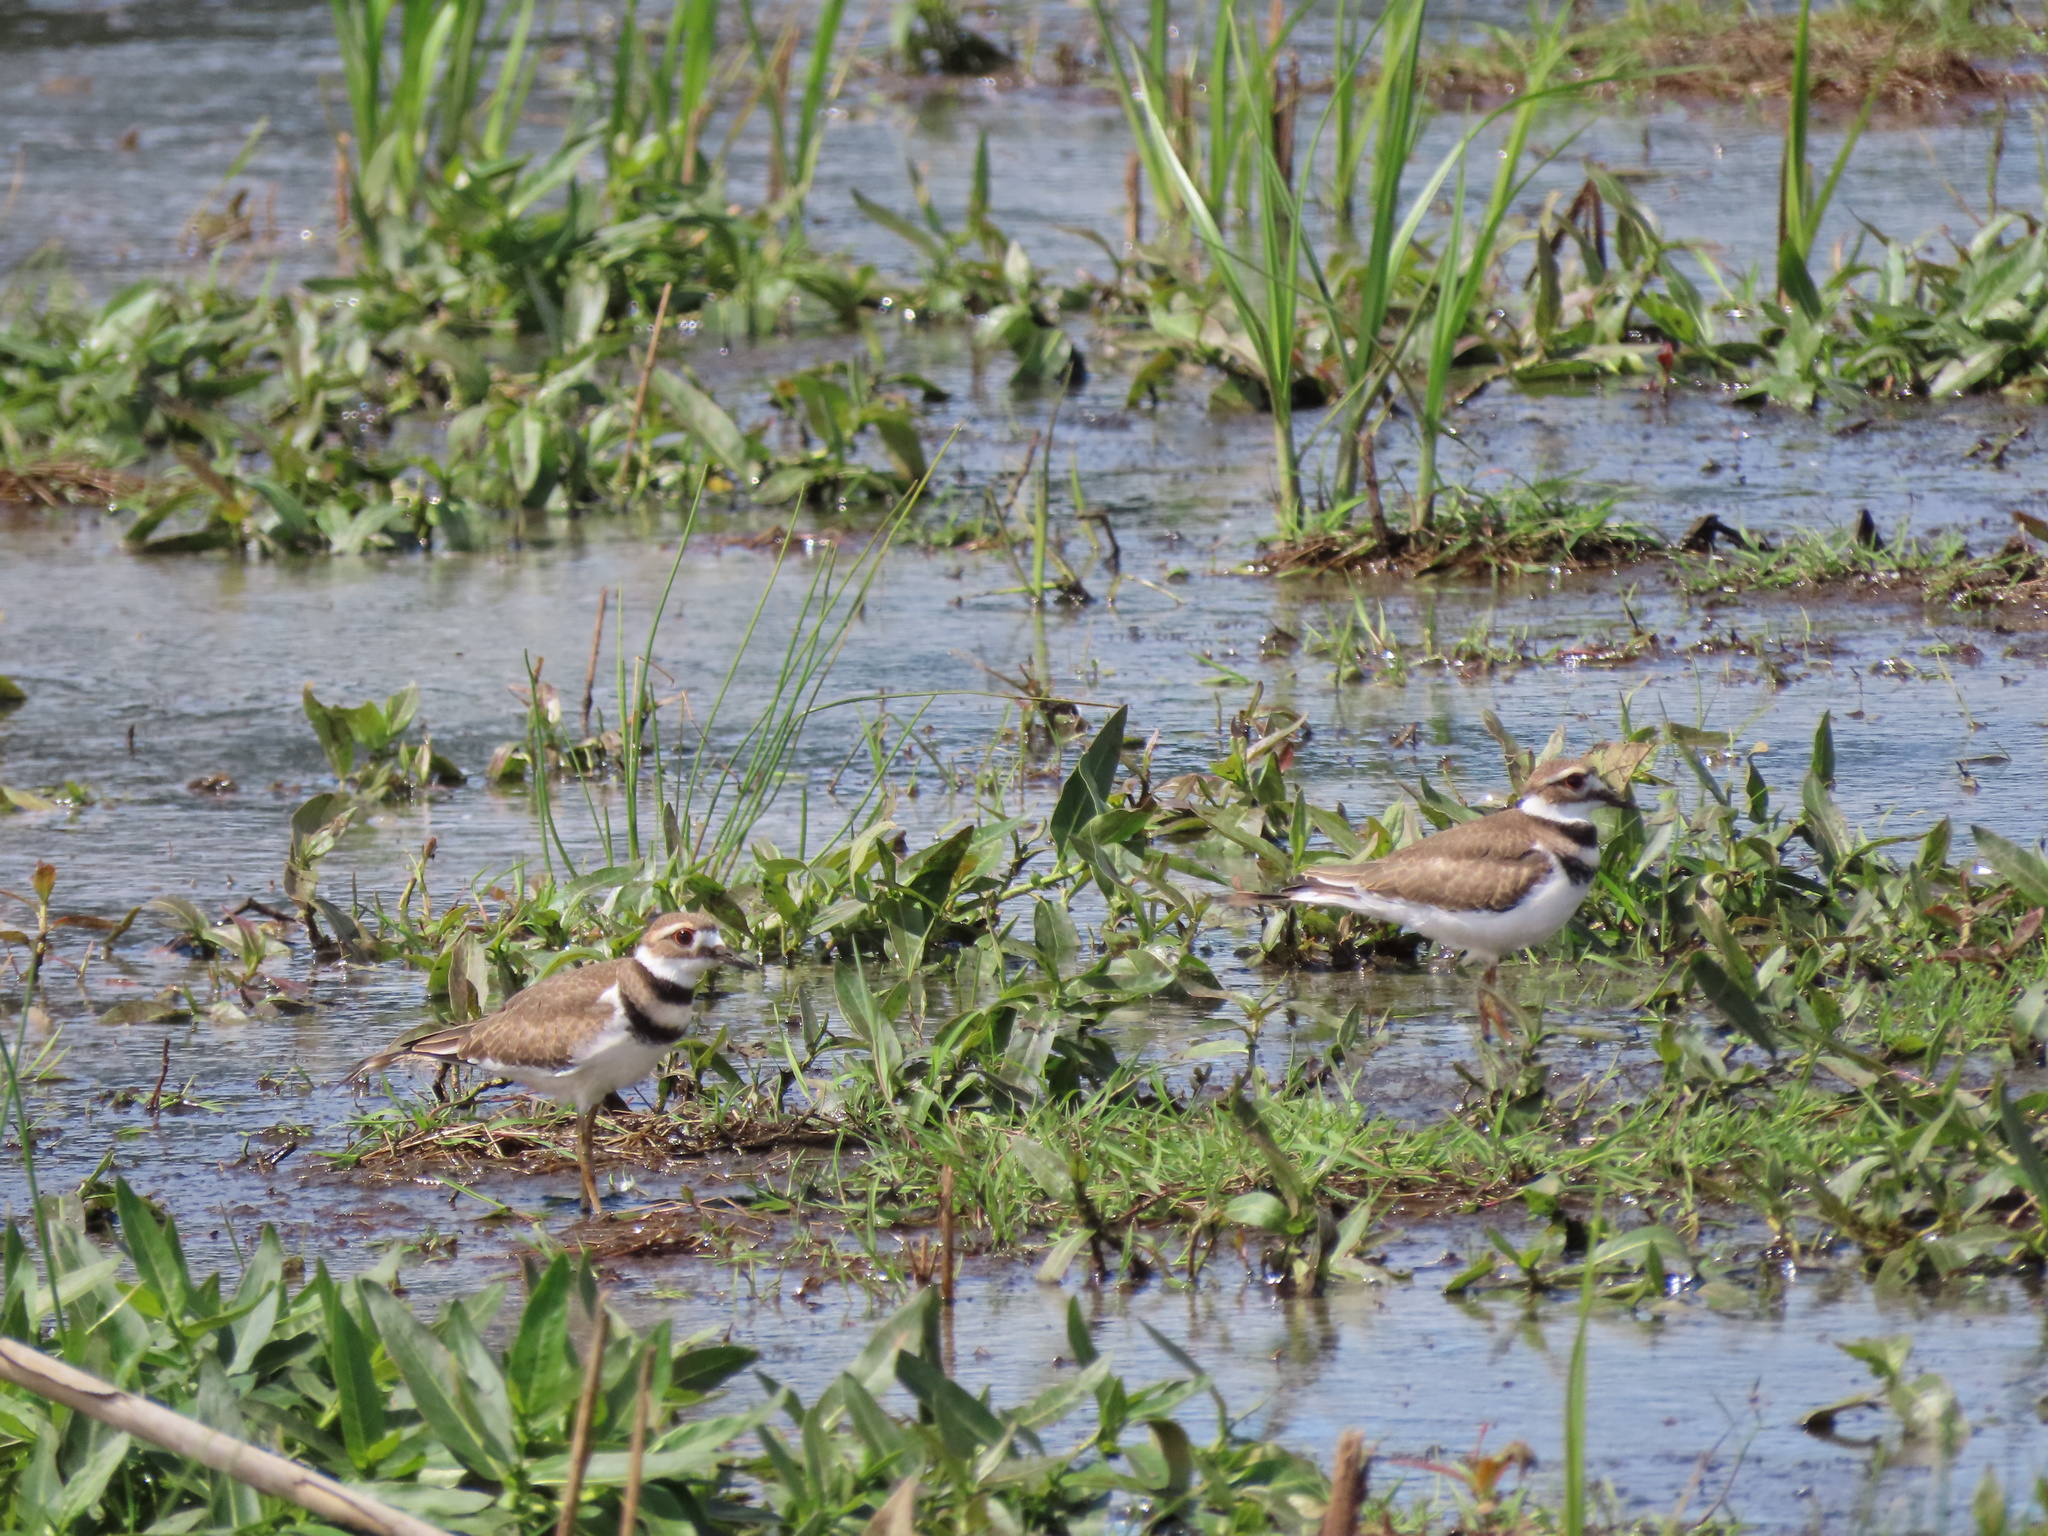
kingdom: Animalia
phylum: Chordata
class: Aves
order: Charadriiformes
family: Charadriidae
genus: Charadrius
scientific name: Charadrius vociferus
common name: Killdeer
